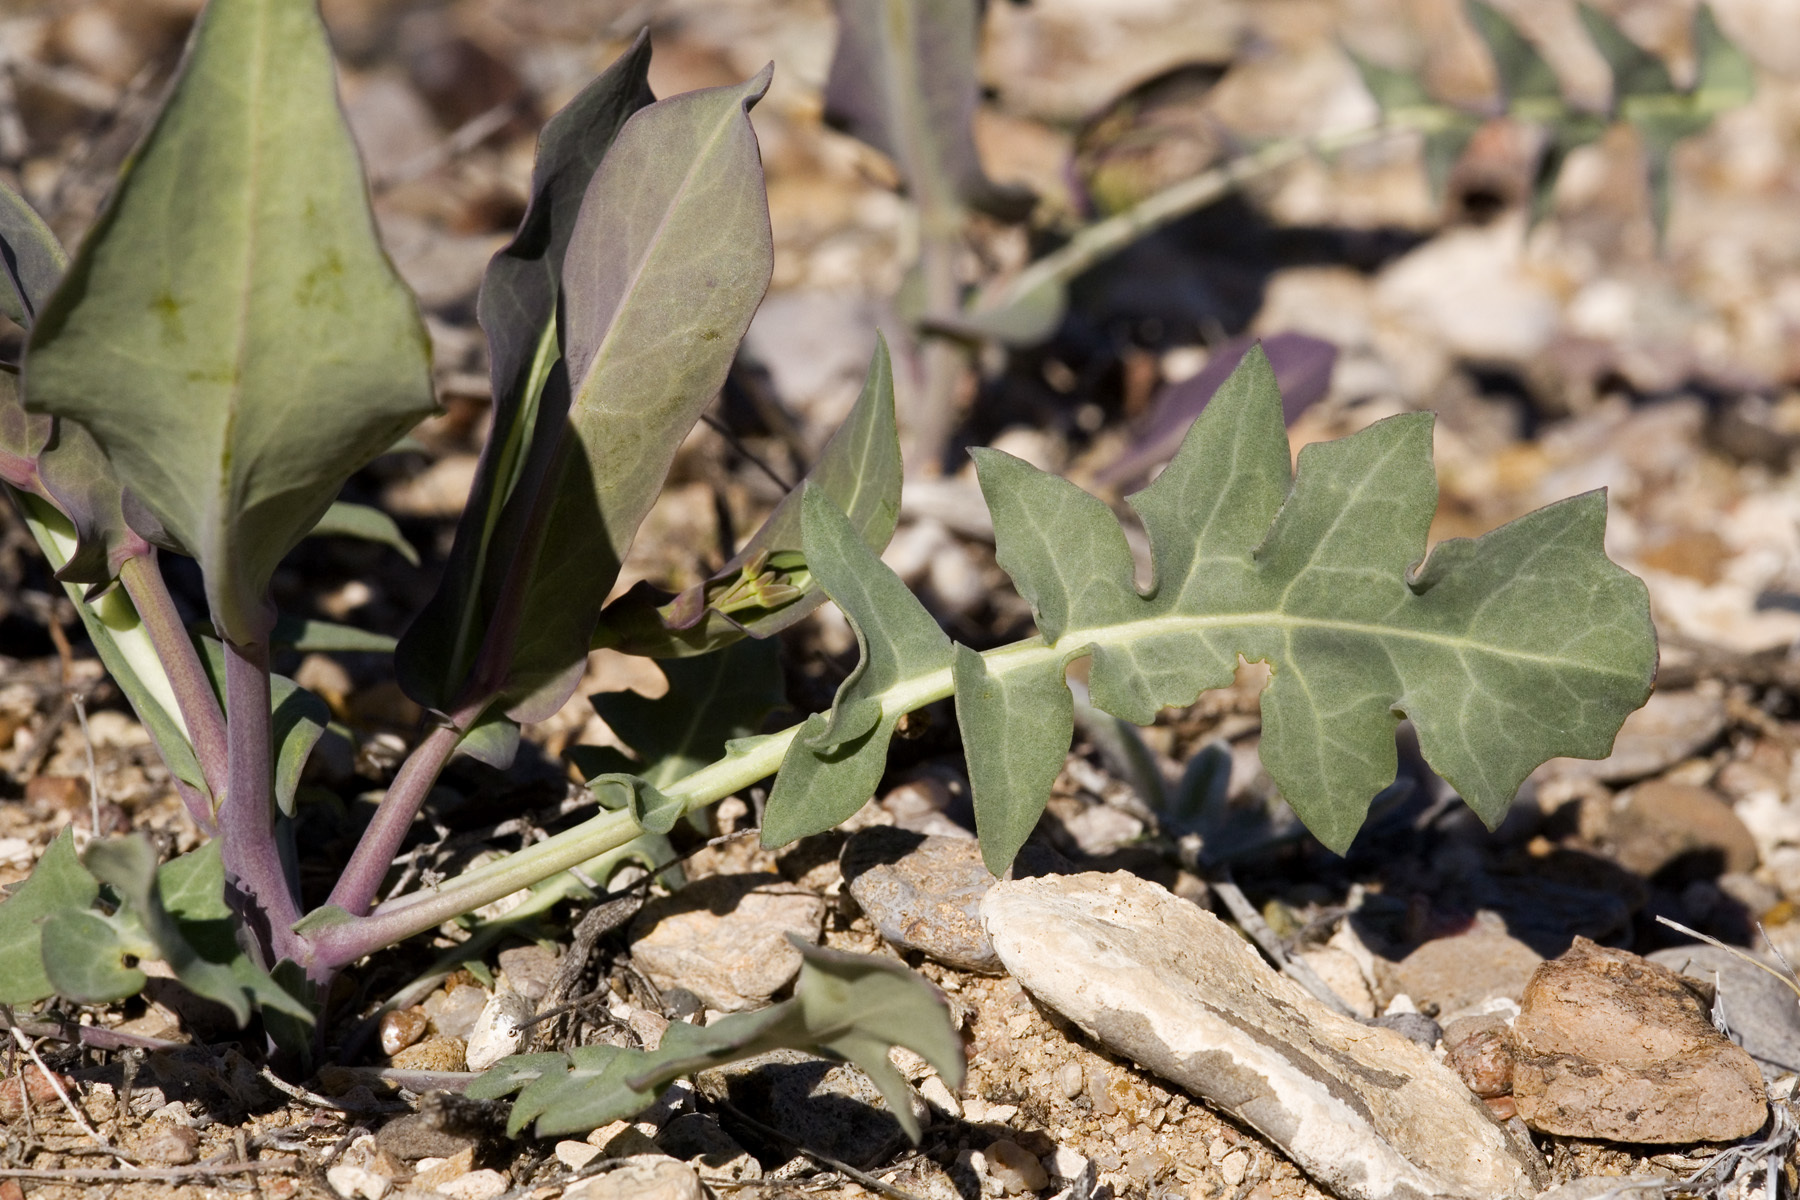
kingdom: Plantae
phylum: Tracheophyta
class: Magnoliopsida
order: Brassicales
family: Brassicaceae
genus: Streptanthus
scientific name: Streptanthus carinatus
